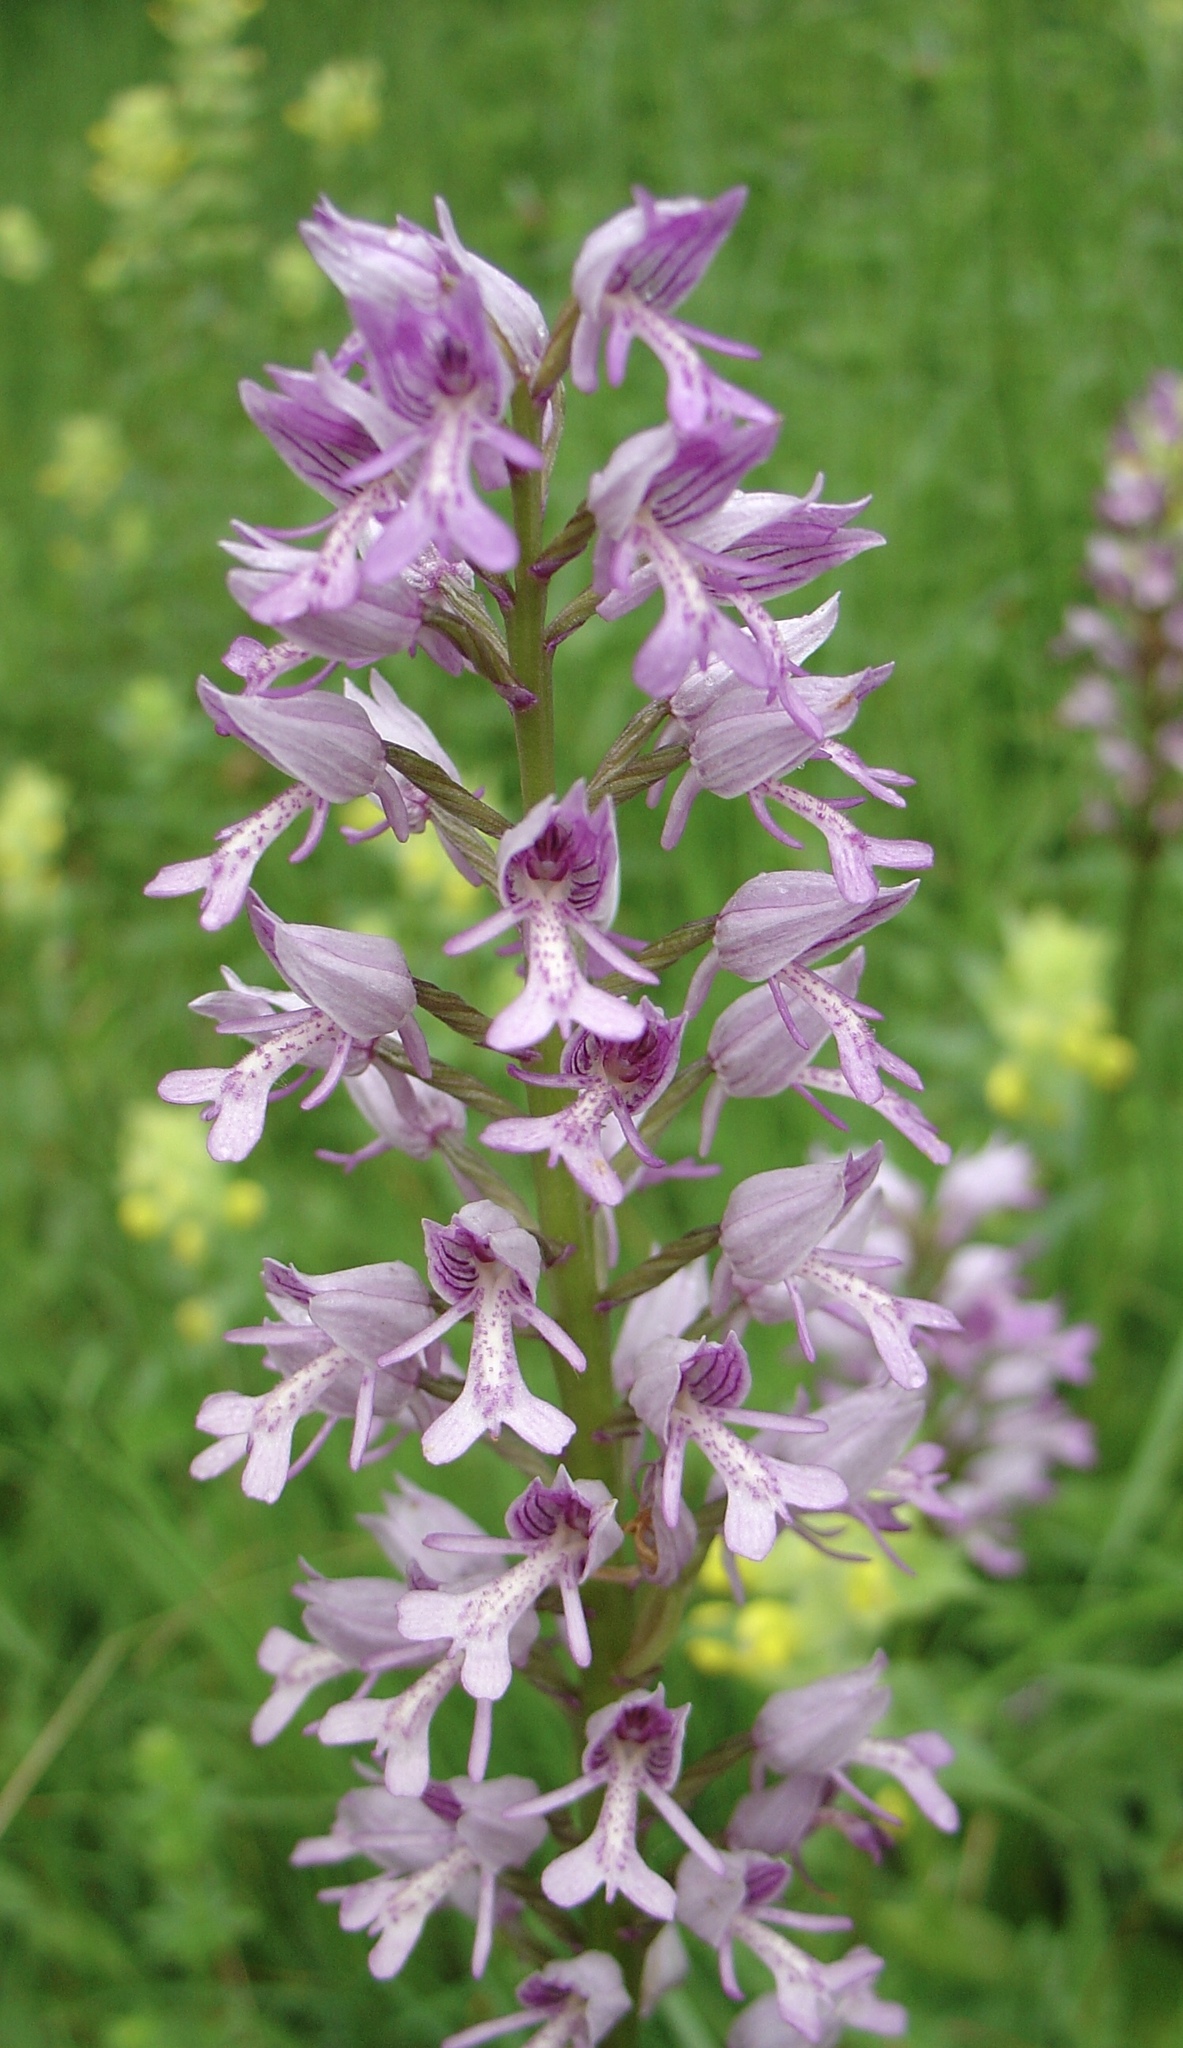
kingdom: Plantae
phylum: Tracheophyta
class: Liliopsida
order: Asparagales
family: Orchidaceae
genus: Orchis
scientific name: Orchis militaris
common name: Military orchid
